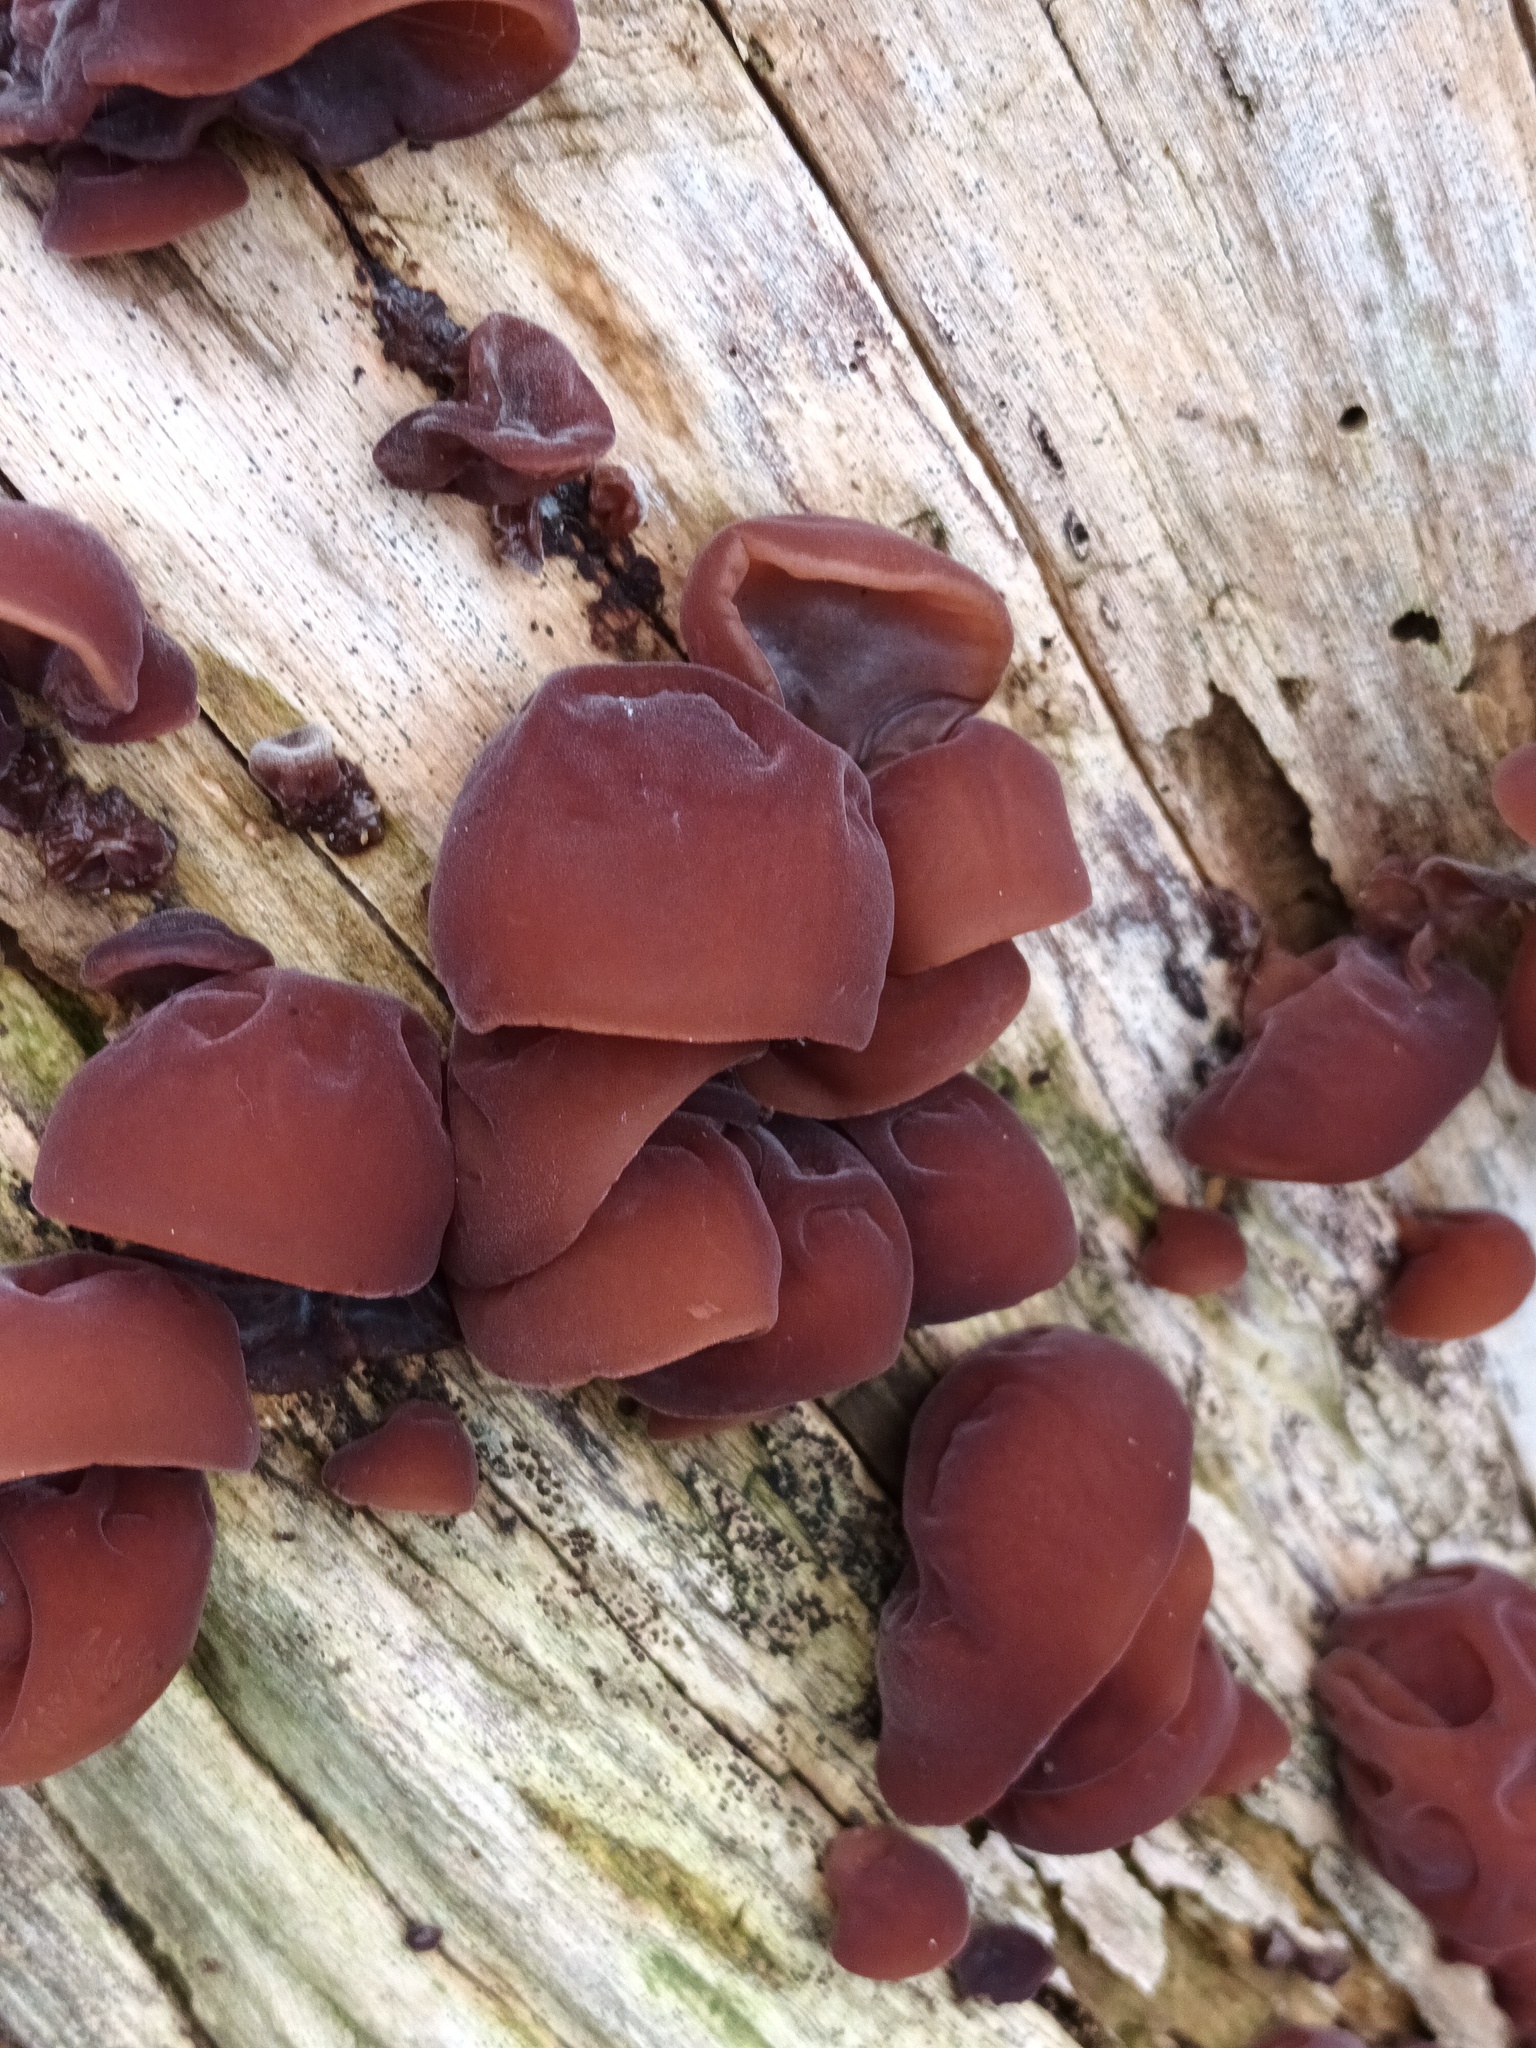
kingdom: Fungi
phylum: Basidiomycota
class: Agaricomycetes
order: Auriculariales
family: Auriculariaceae
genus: Auricularia
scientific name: Auricularia auricula-judae
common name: Jelly ear
